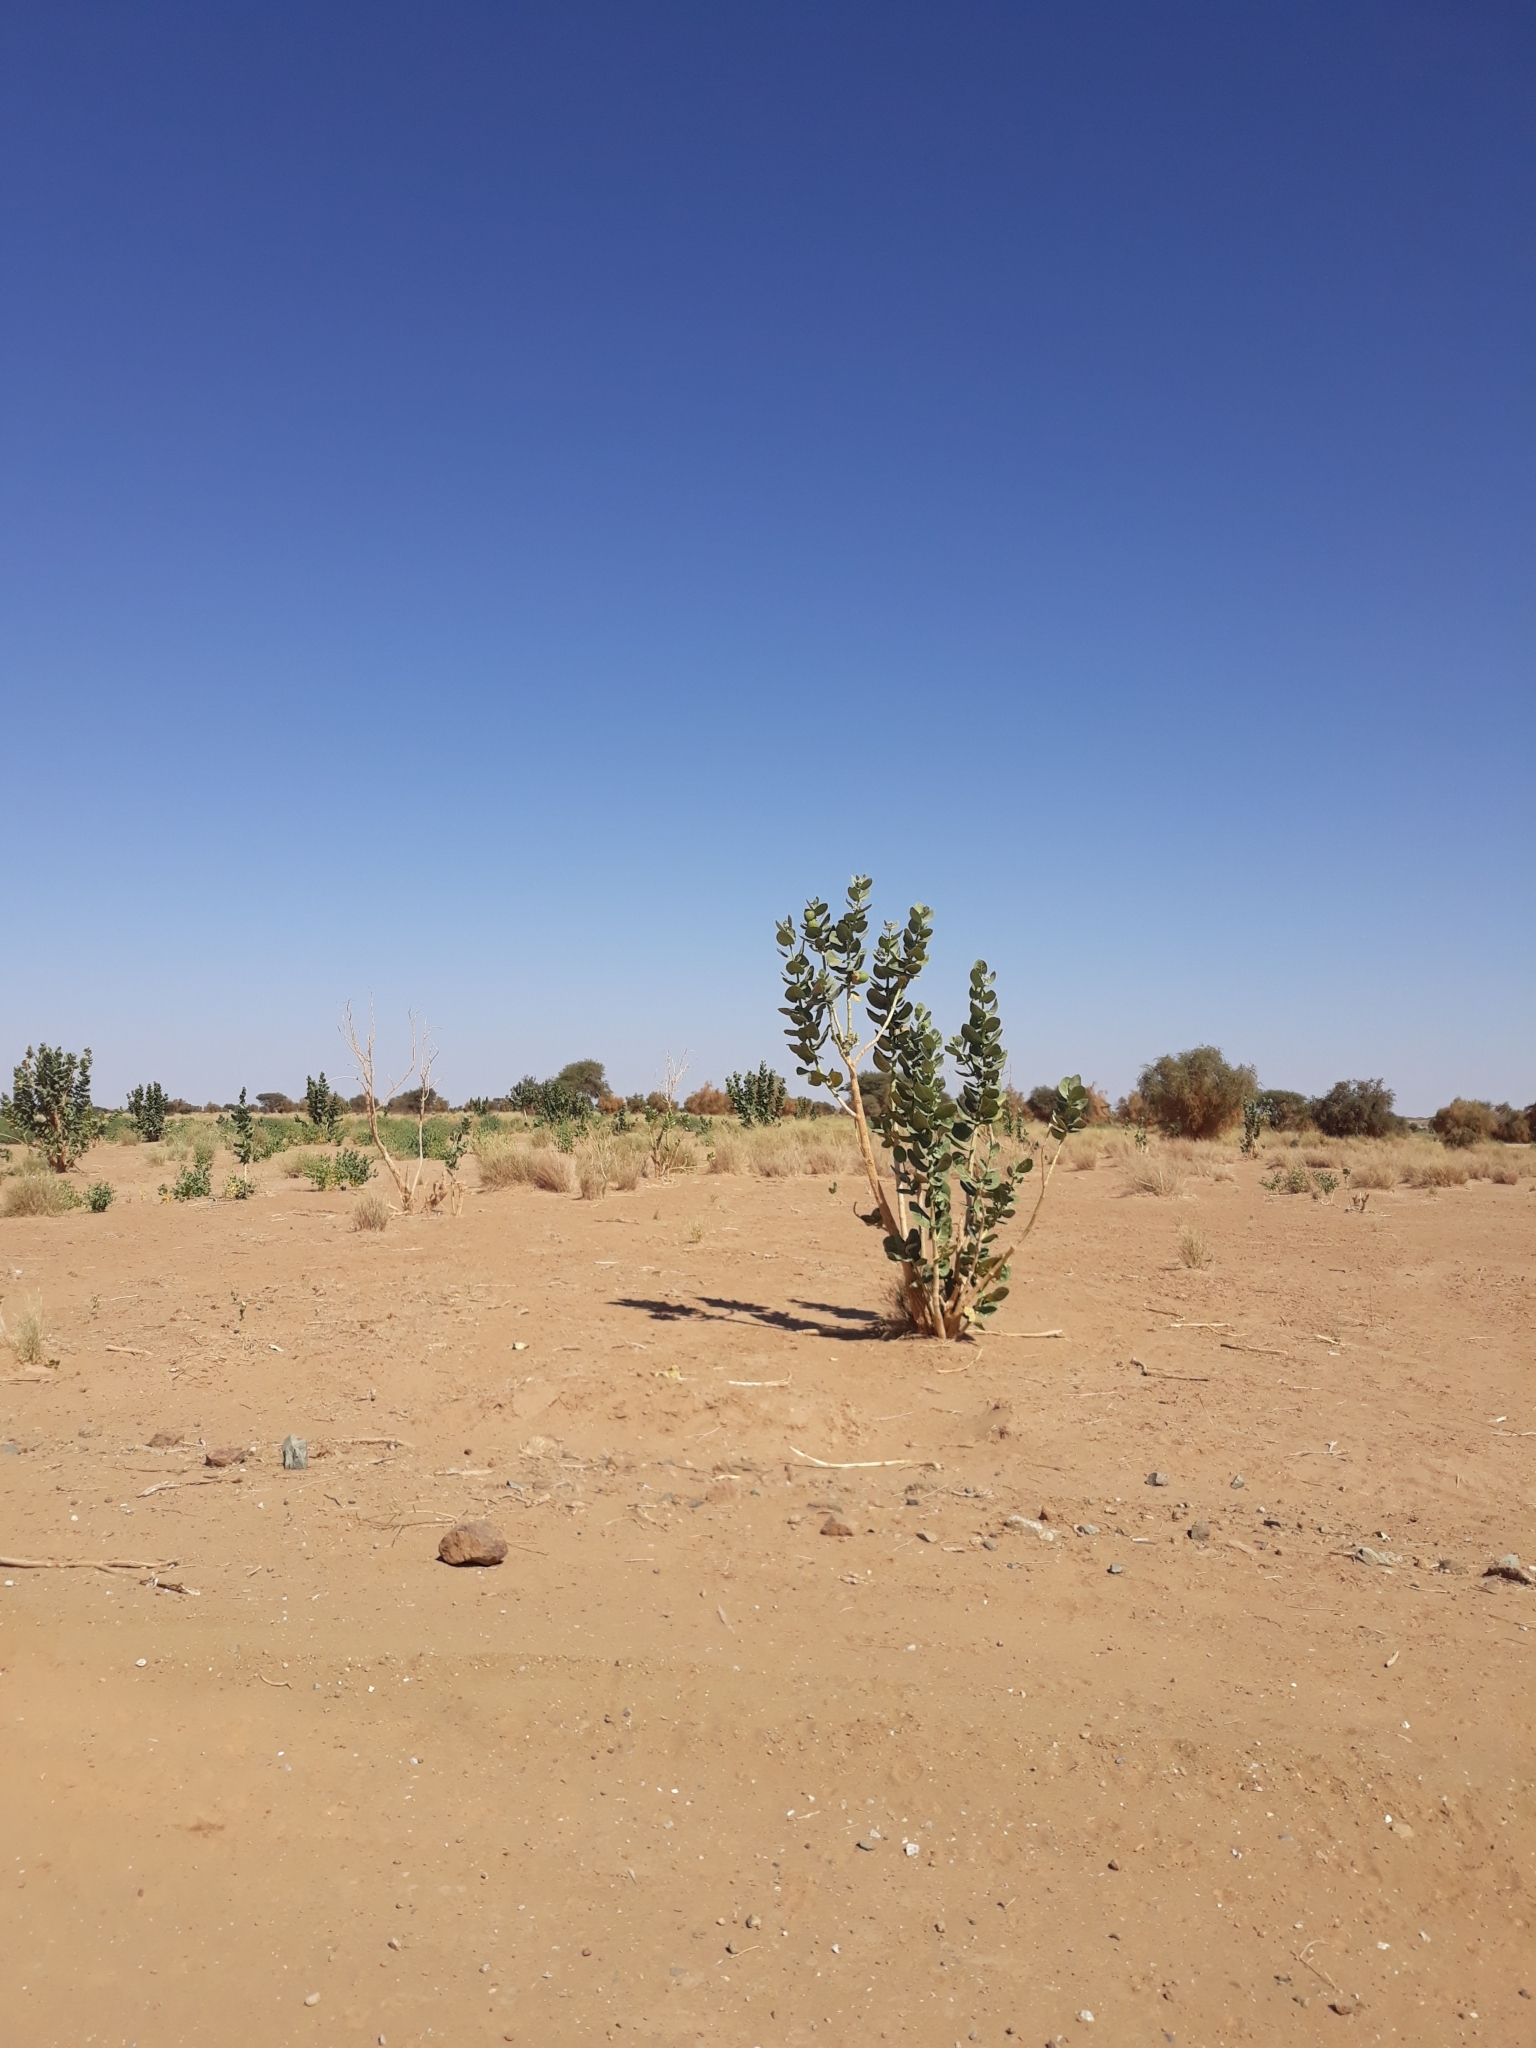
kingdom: Plantae
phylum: Tracheophyta
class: Magnoliopsida
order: Gentianales
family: Apocynaceae
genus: Calotropis
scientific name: Calotropis procera
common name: Roostertree
